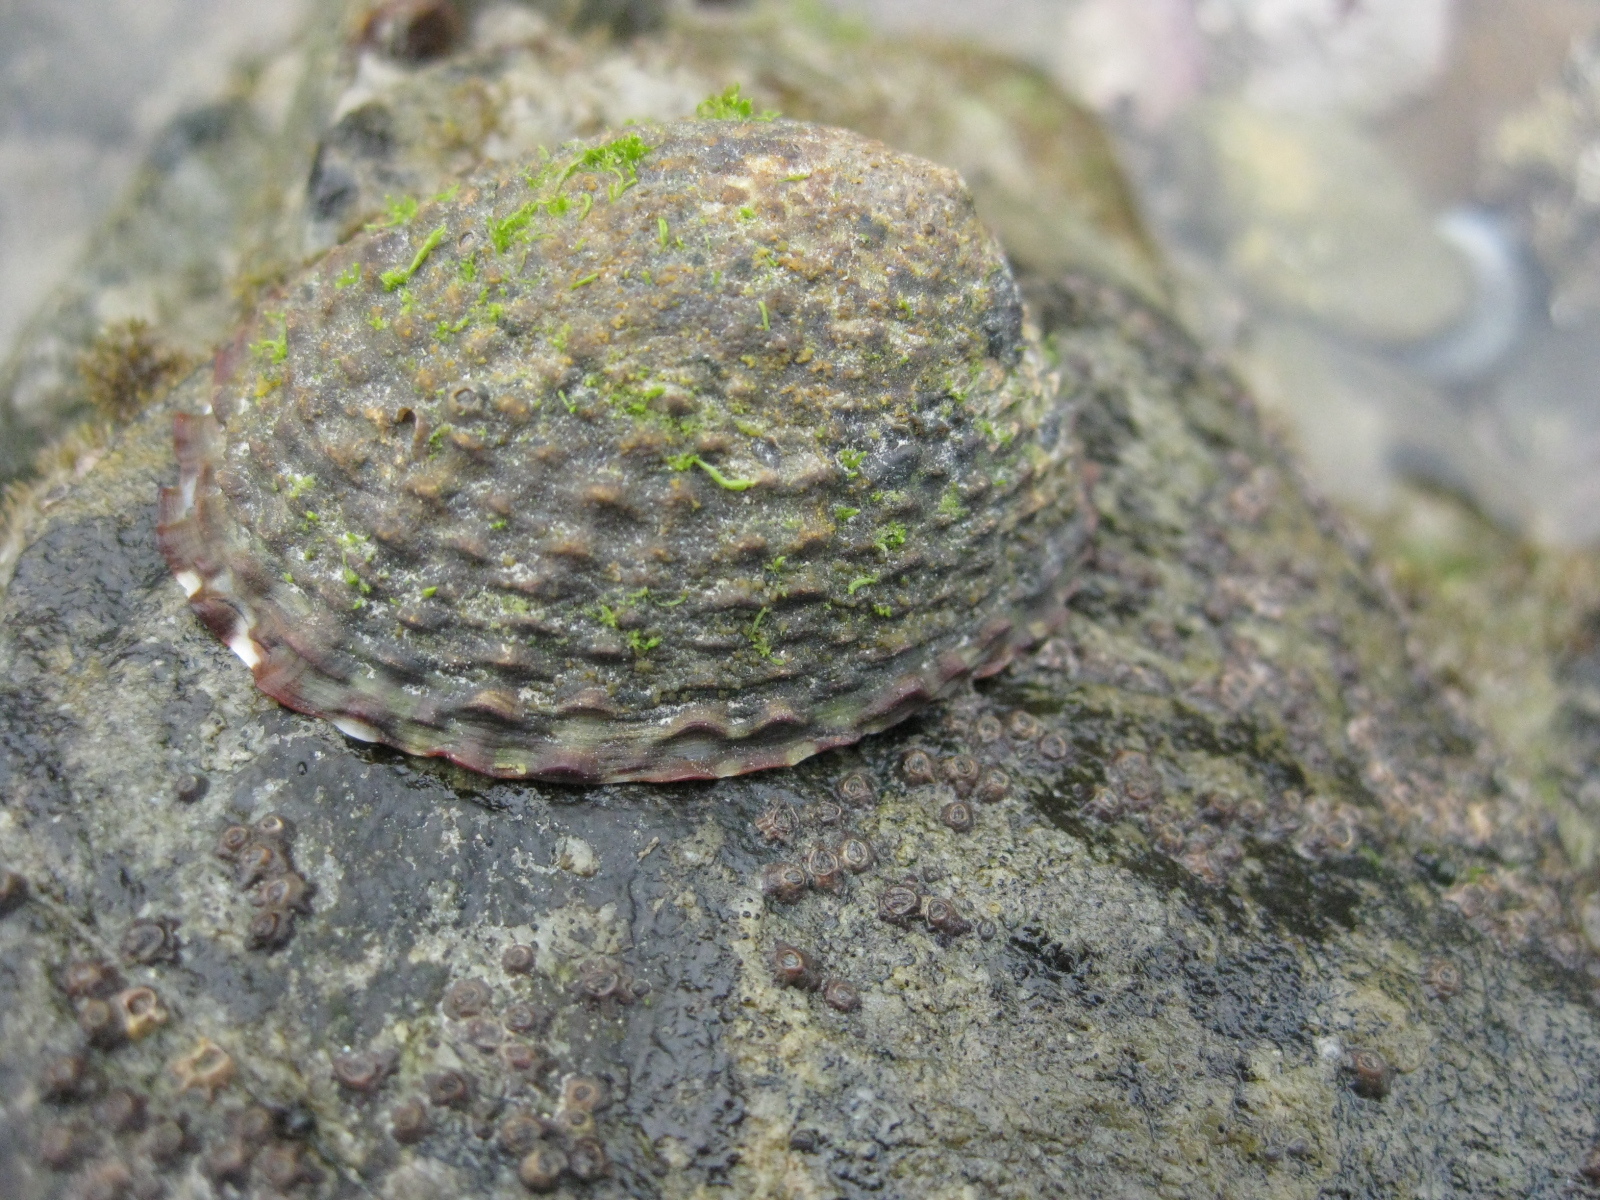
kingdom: Animalia
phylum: Mollusca
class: Gastropoda
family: Nacellidae
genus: Cellana
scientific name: Cellana denticulata
